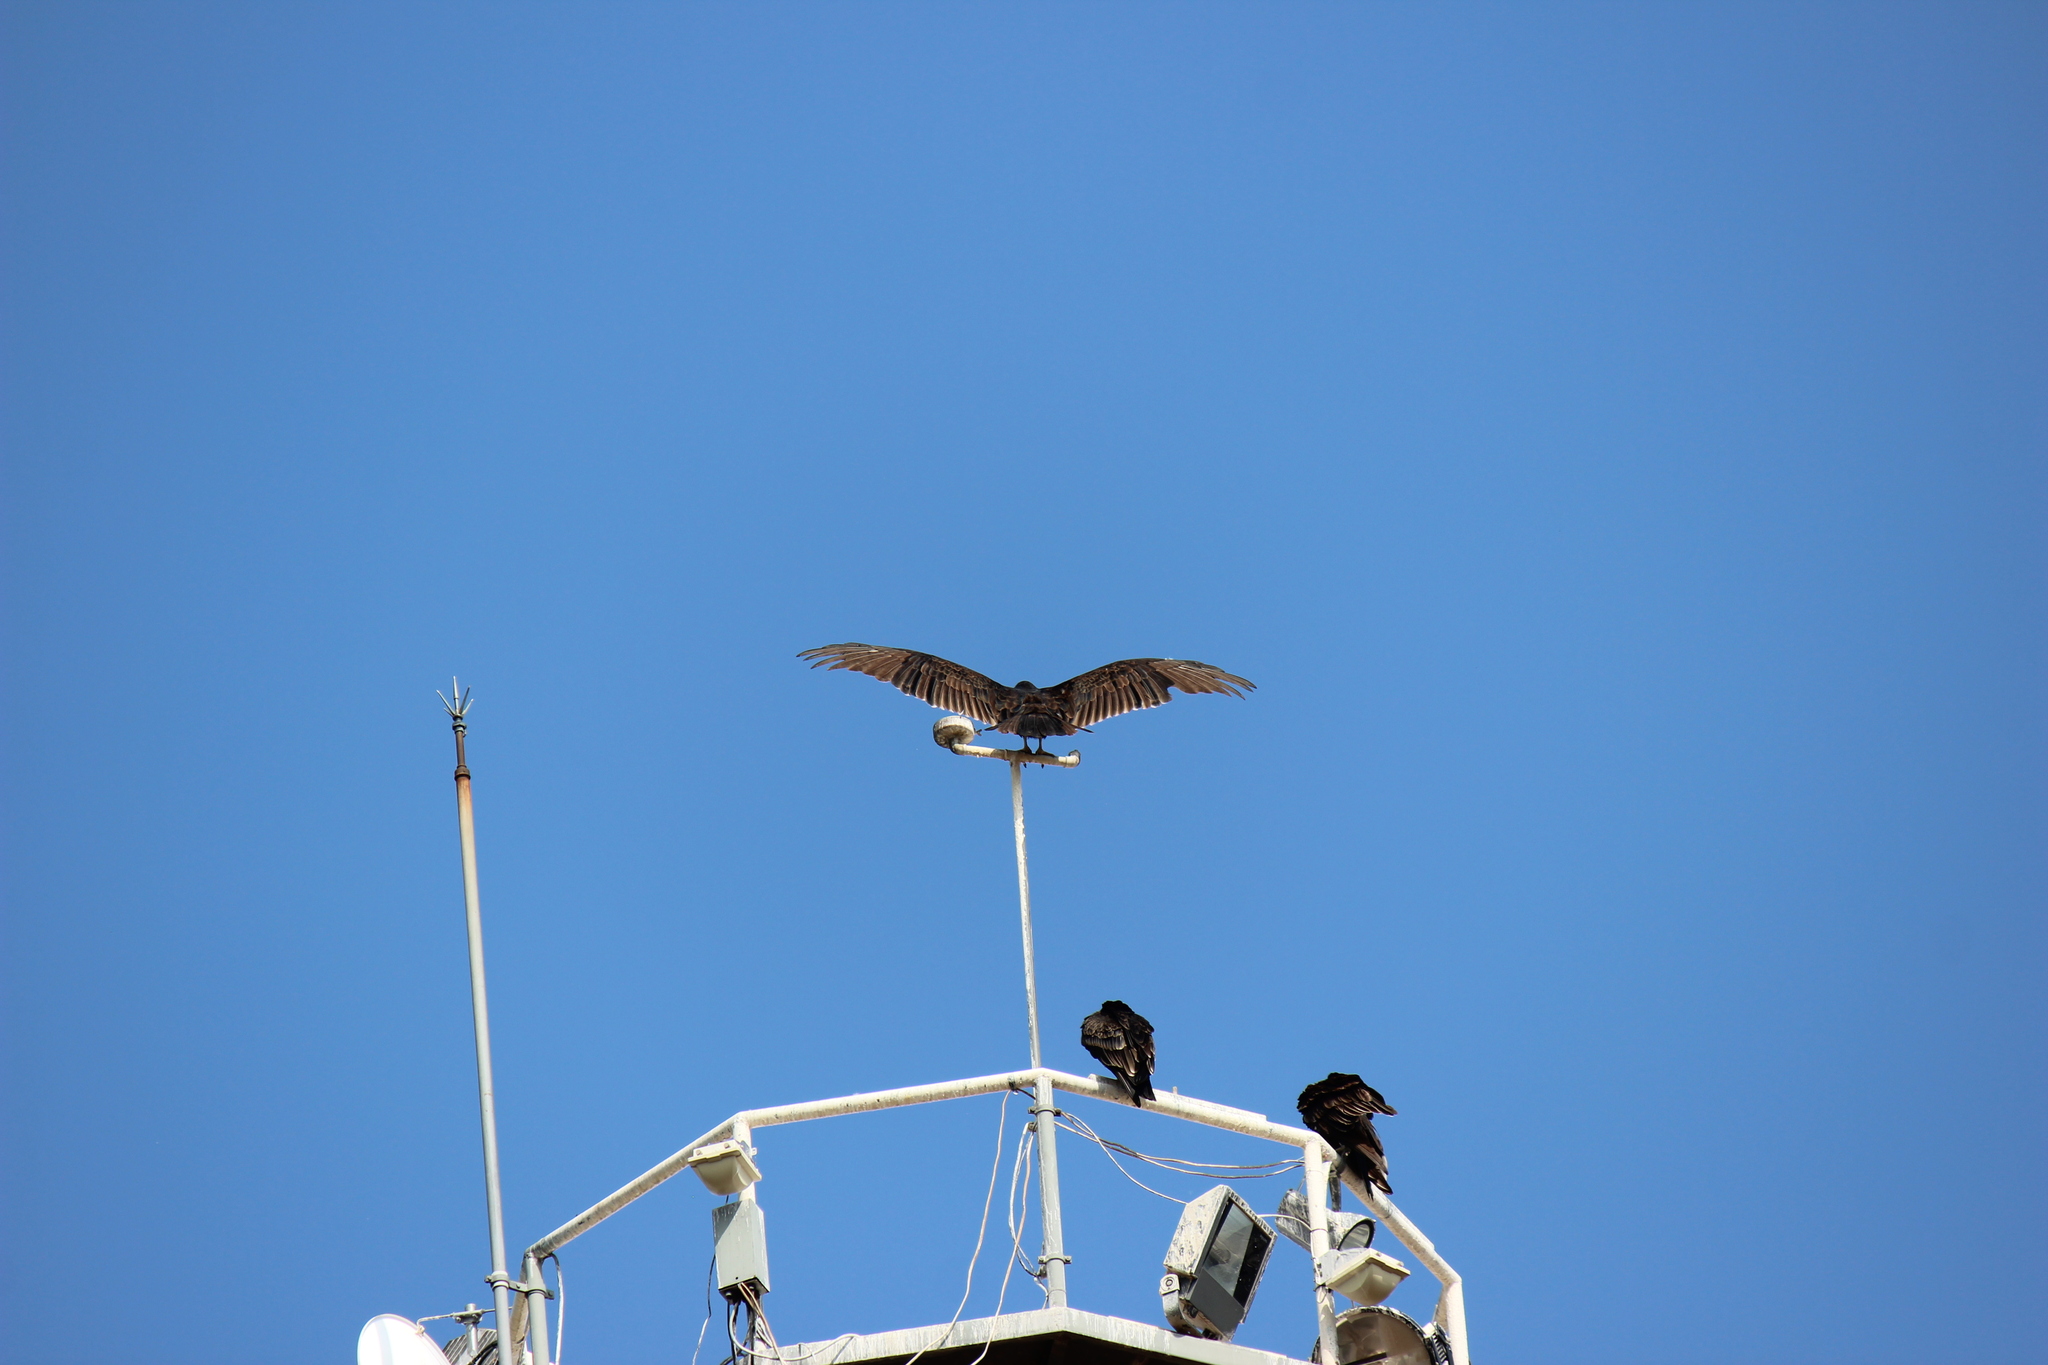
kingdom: Animalia
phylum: Chordata
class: Aves
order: Accipitriformes
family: Cathartidae
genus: Cathartes
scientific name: Cathartes aura
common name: Turkey vulture
